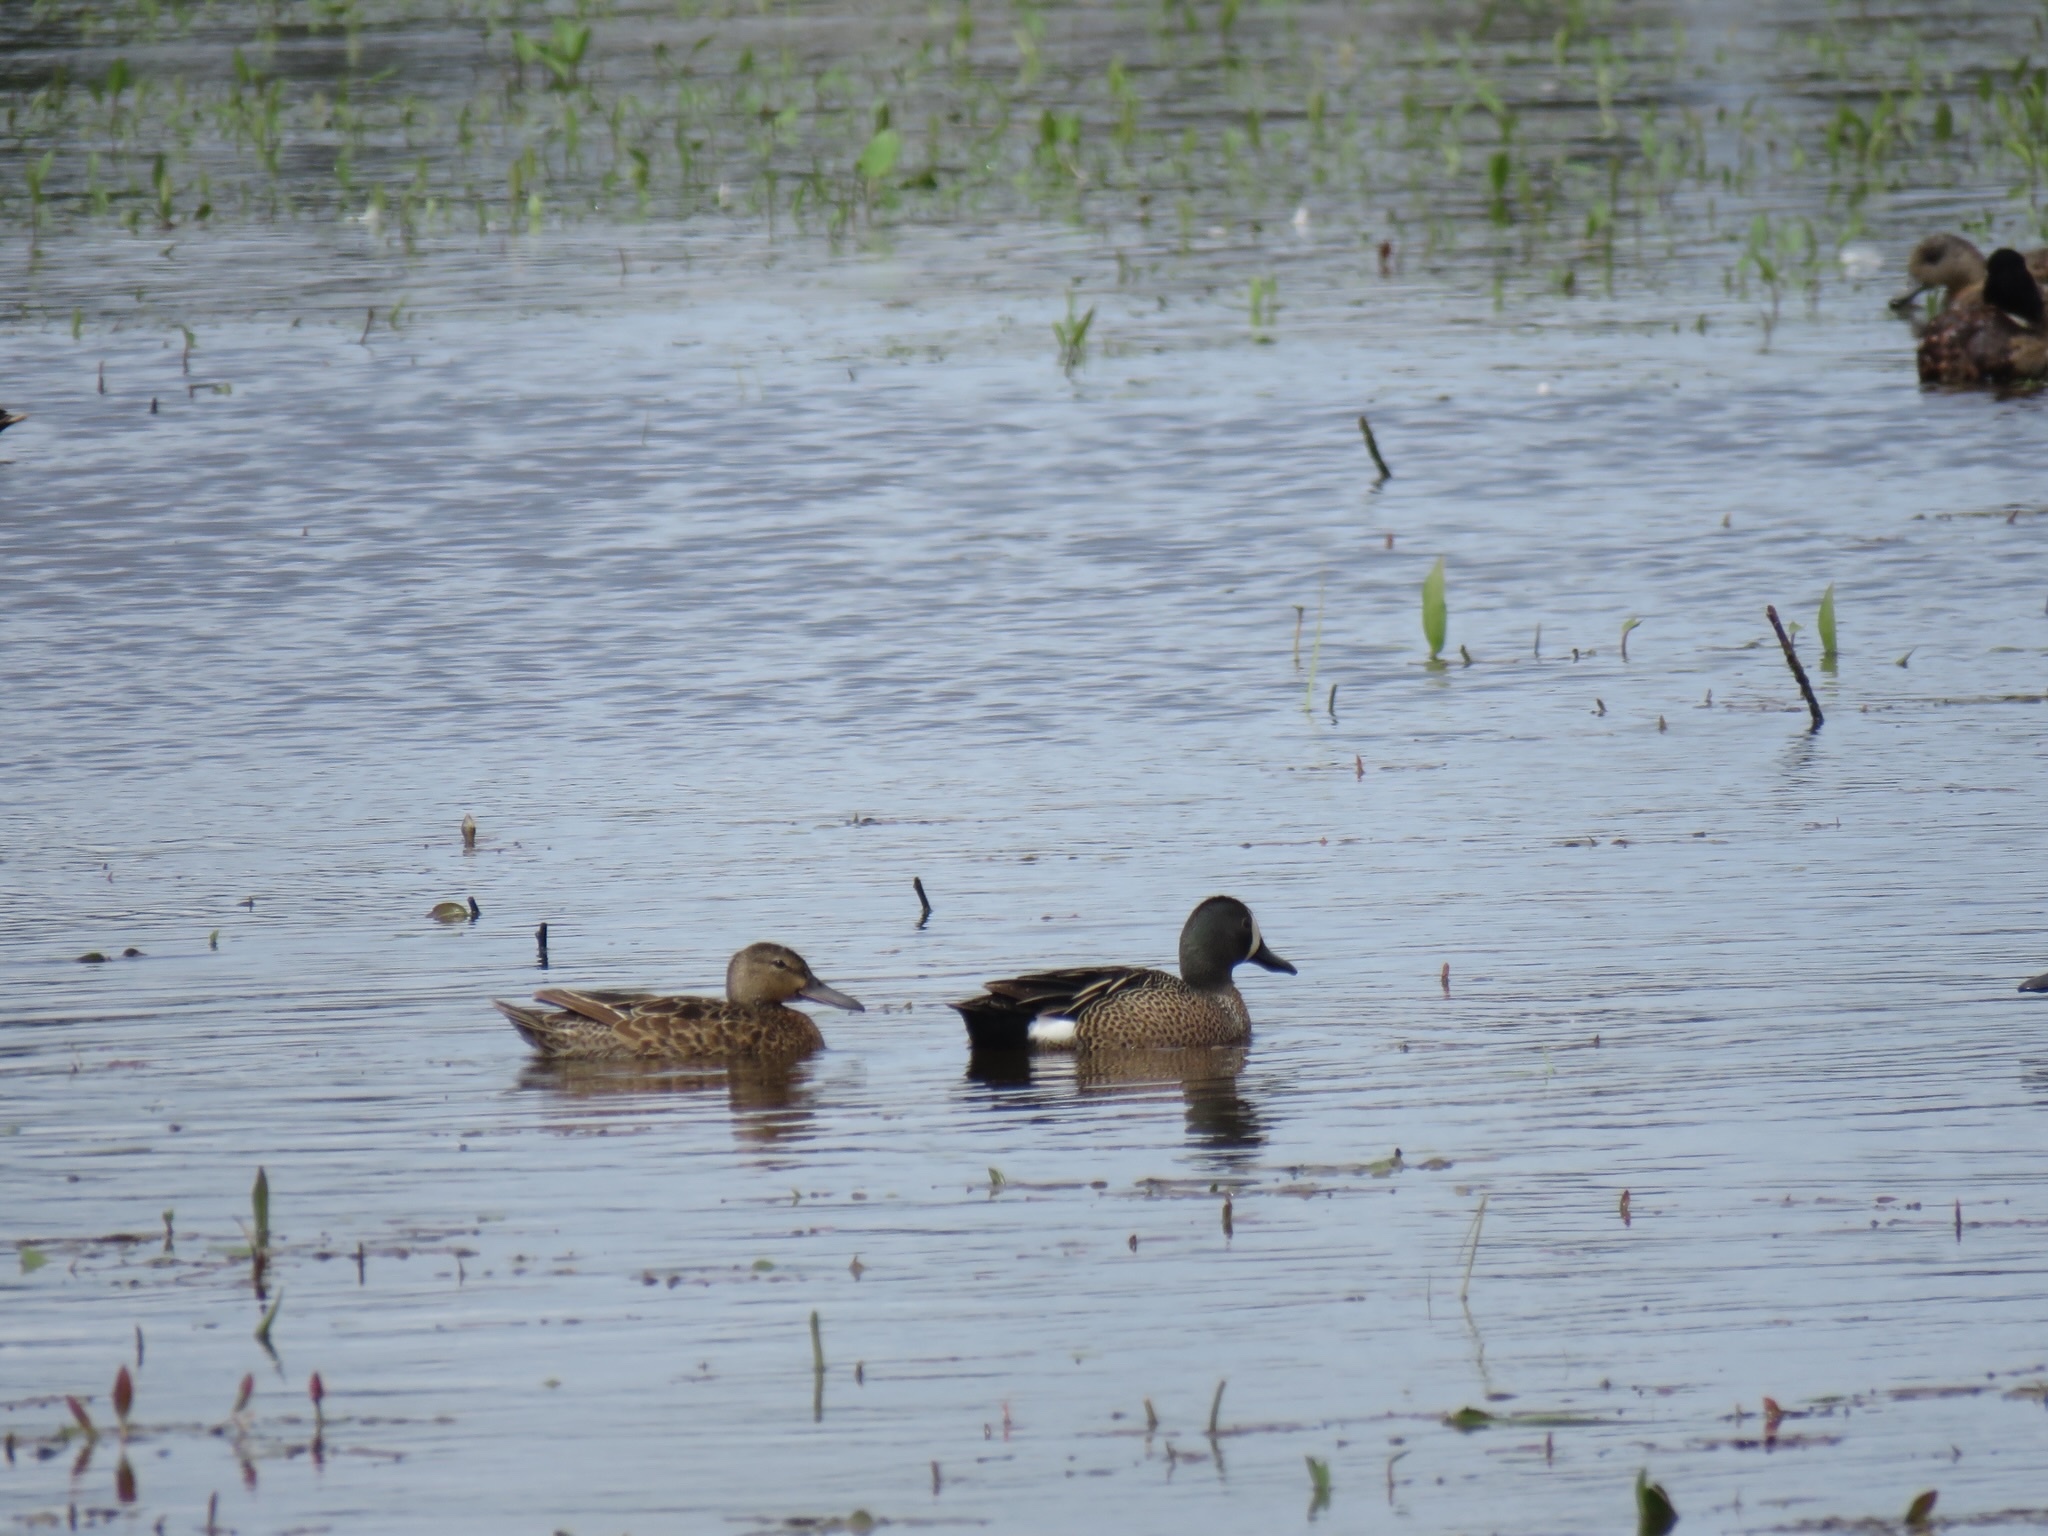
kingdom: Animalia
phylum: Chordata
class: Aves
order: Anseriformes
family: Anatidae
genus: Spatula
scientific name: Spatula discors
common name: Blue-winged teal
